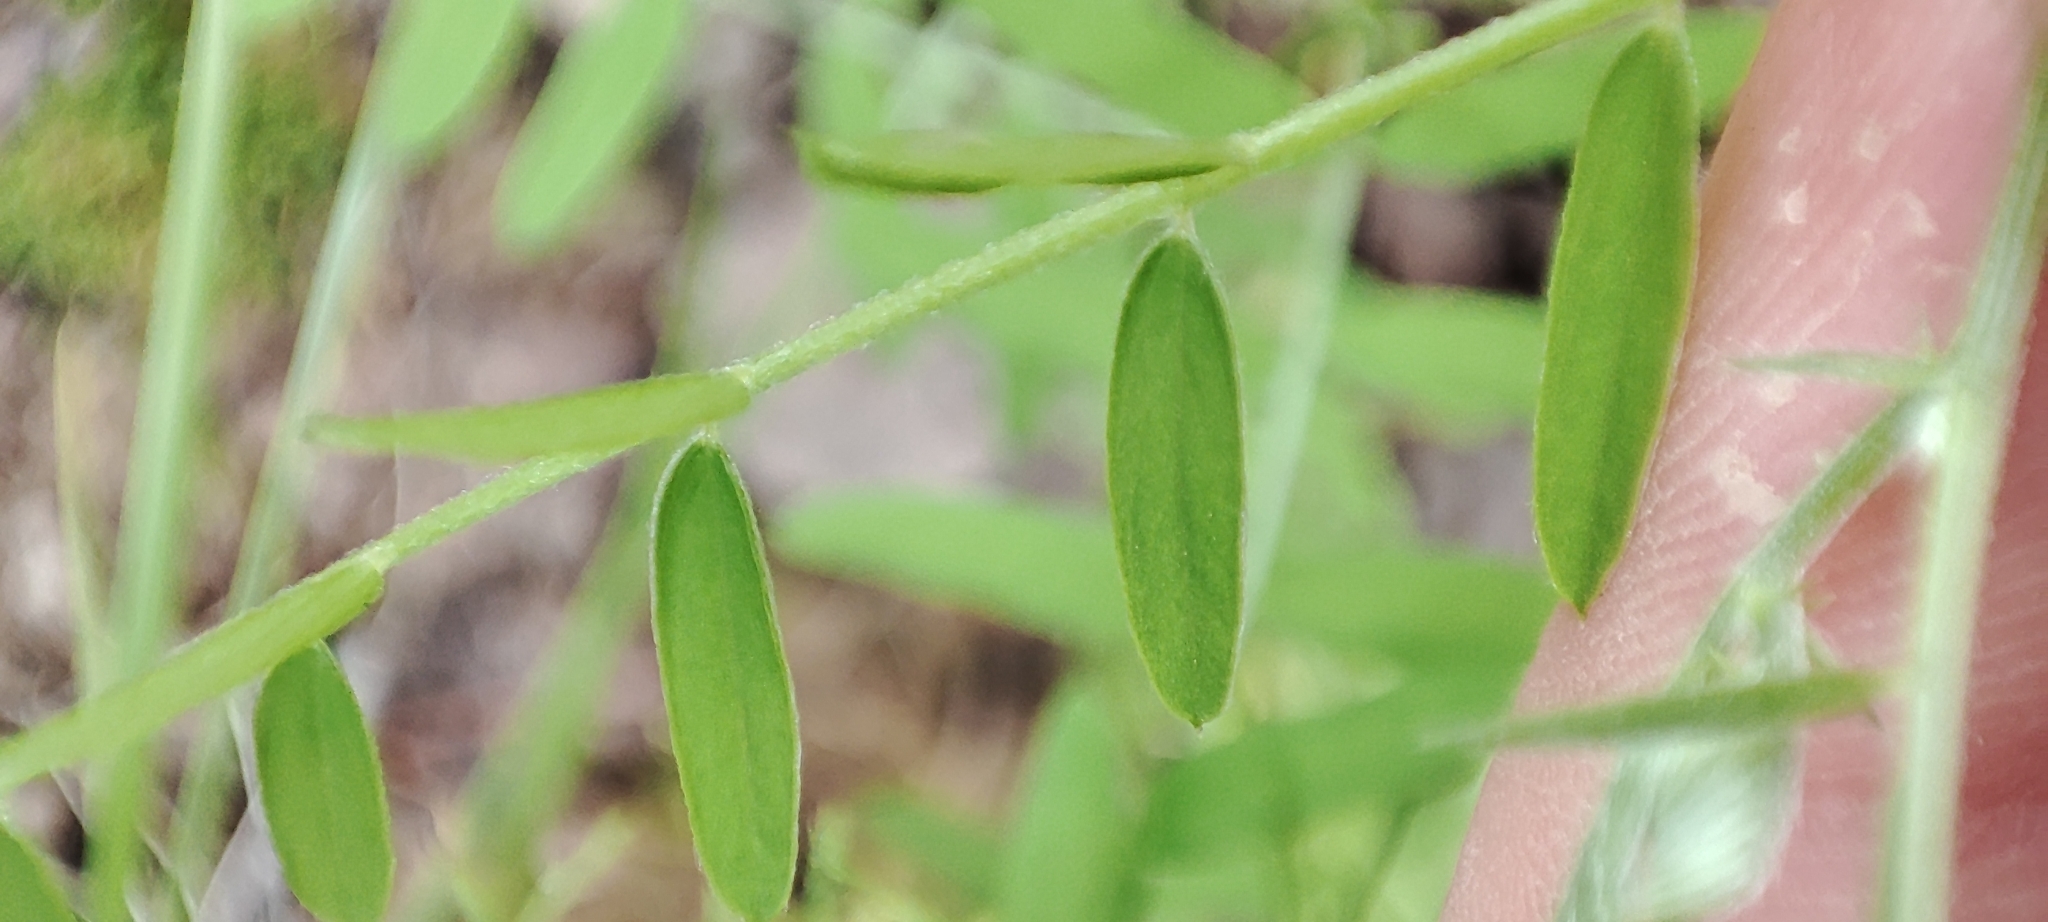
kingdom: Plantae
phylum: Tracheophyta
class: Magnoliopsida
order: Fabales
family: Fabaceae
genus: Vicia
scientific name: Vicia cracca
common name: Bird vetch
